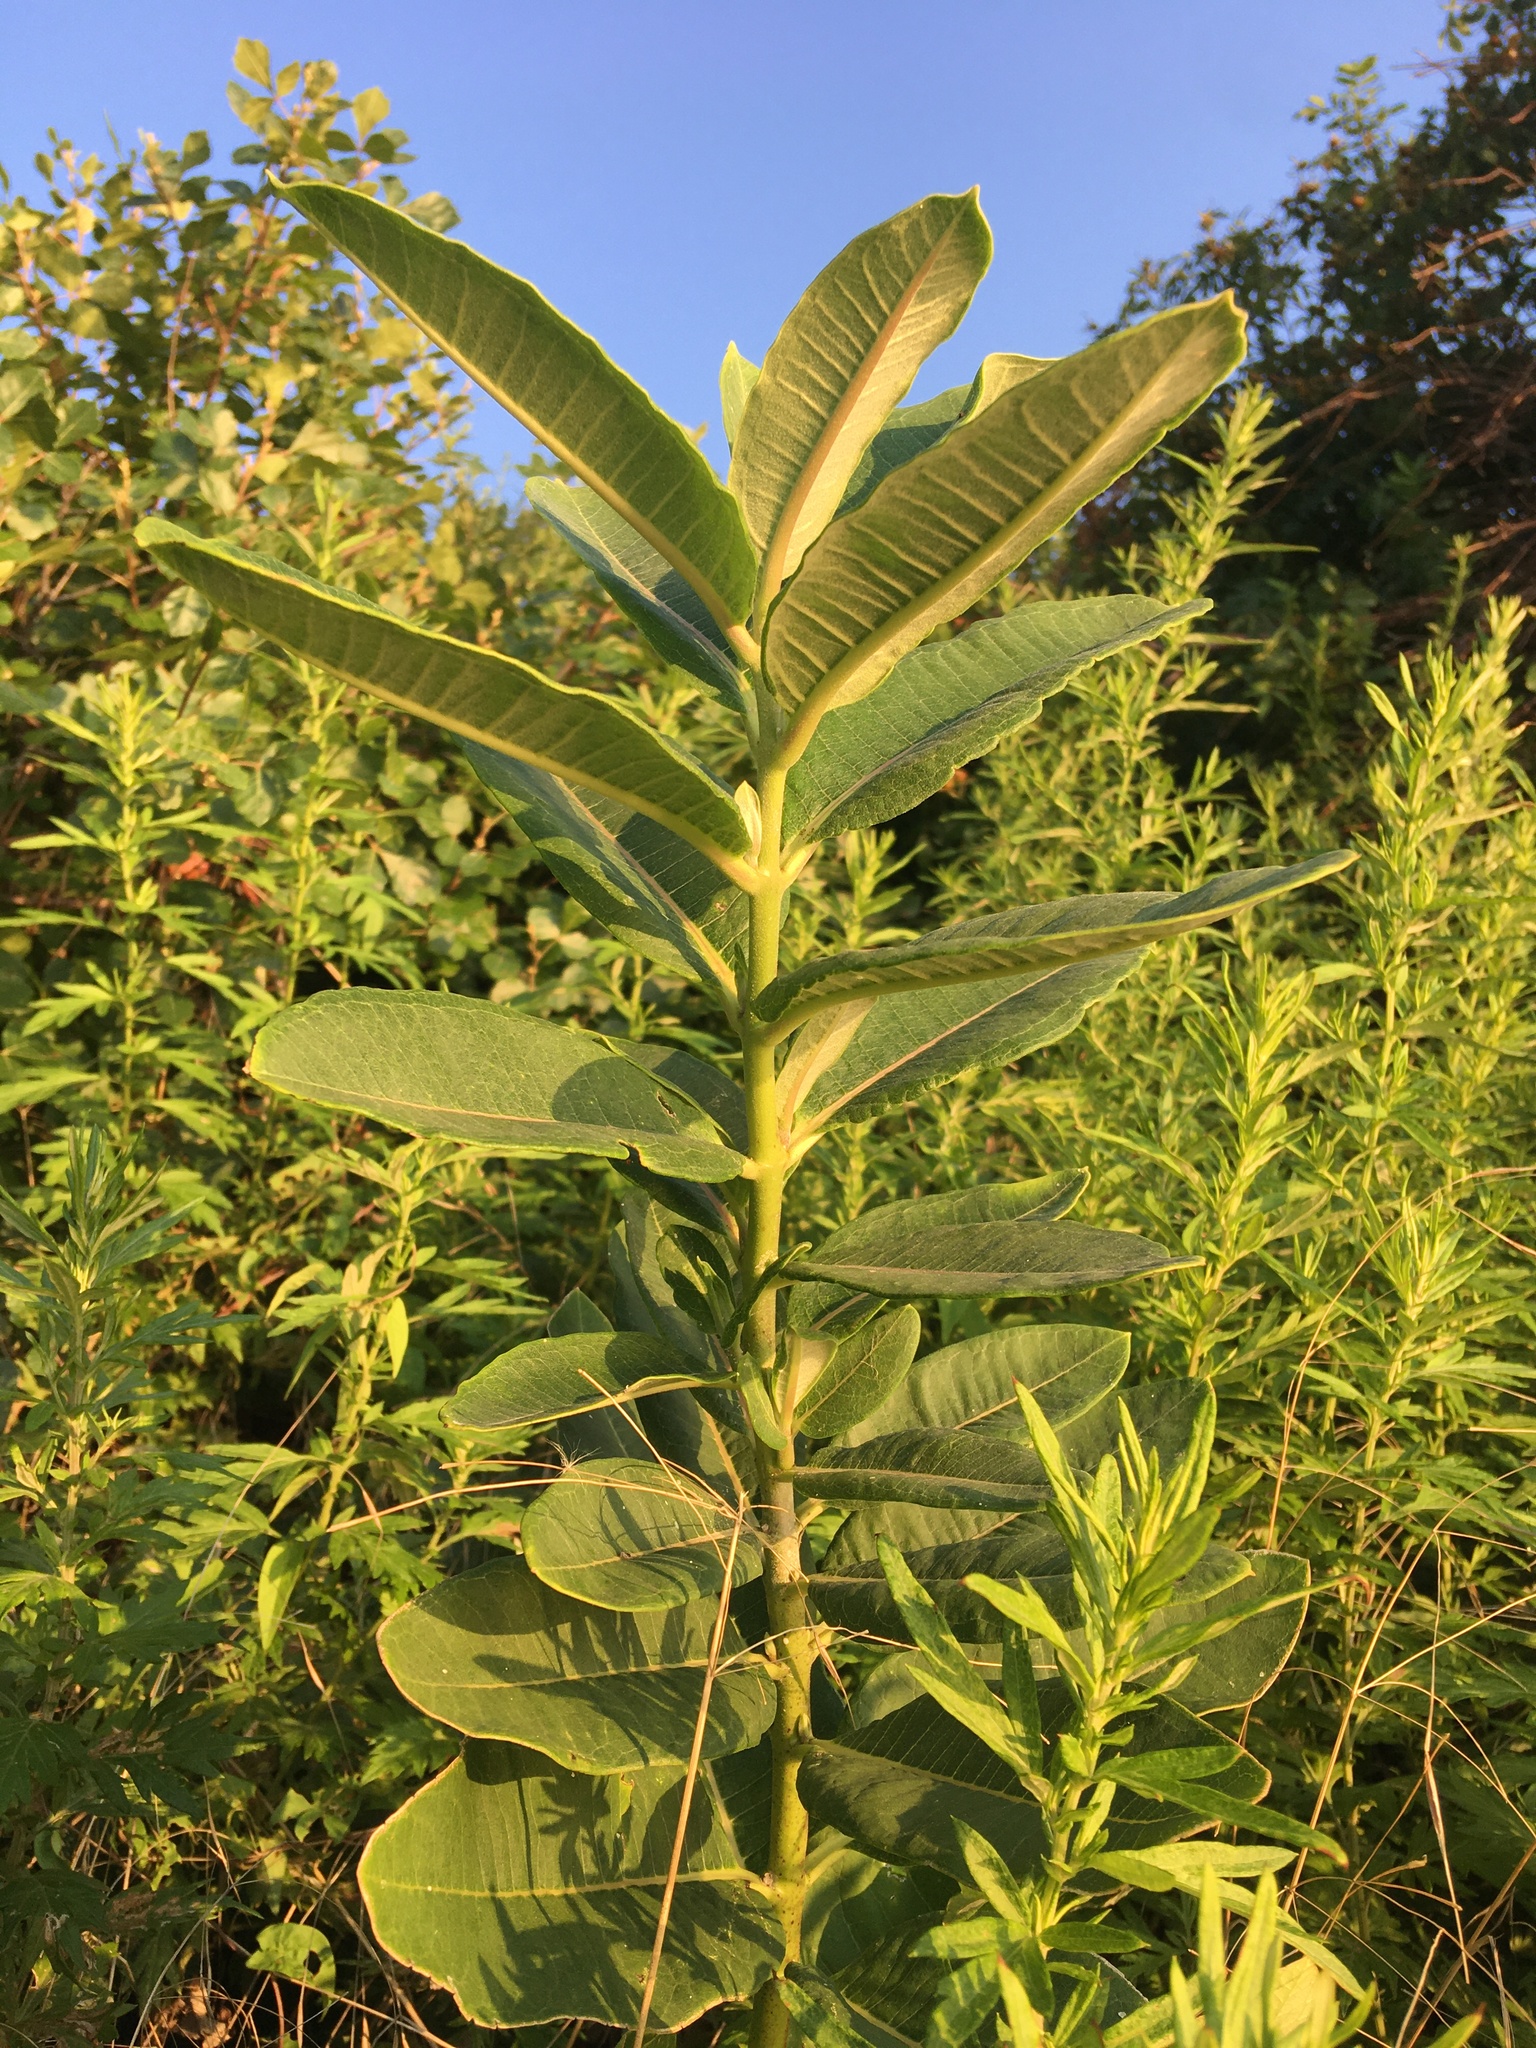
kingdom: Plantae
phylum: Tracheophyta
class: Magnoliopsida
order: Gentianales
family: Apocynaceae
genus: Asclepias
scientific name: Asclepias syriaca
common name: Common milkweed
